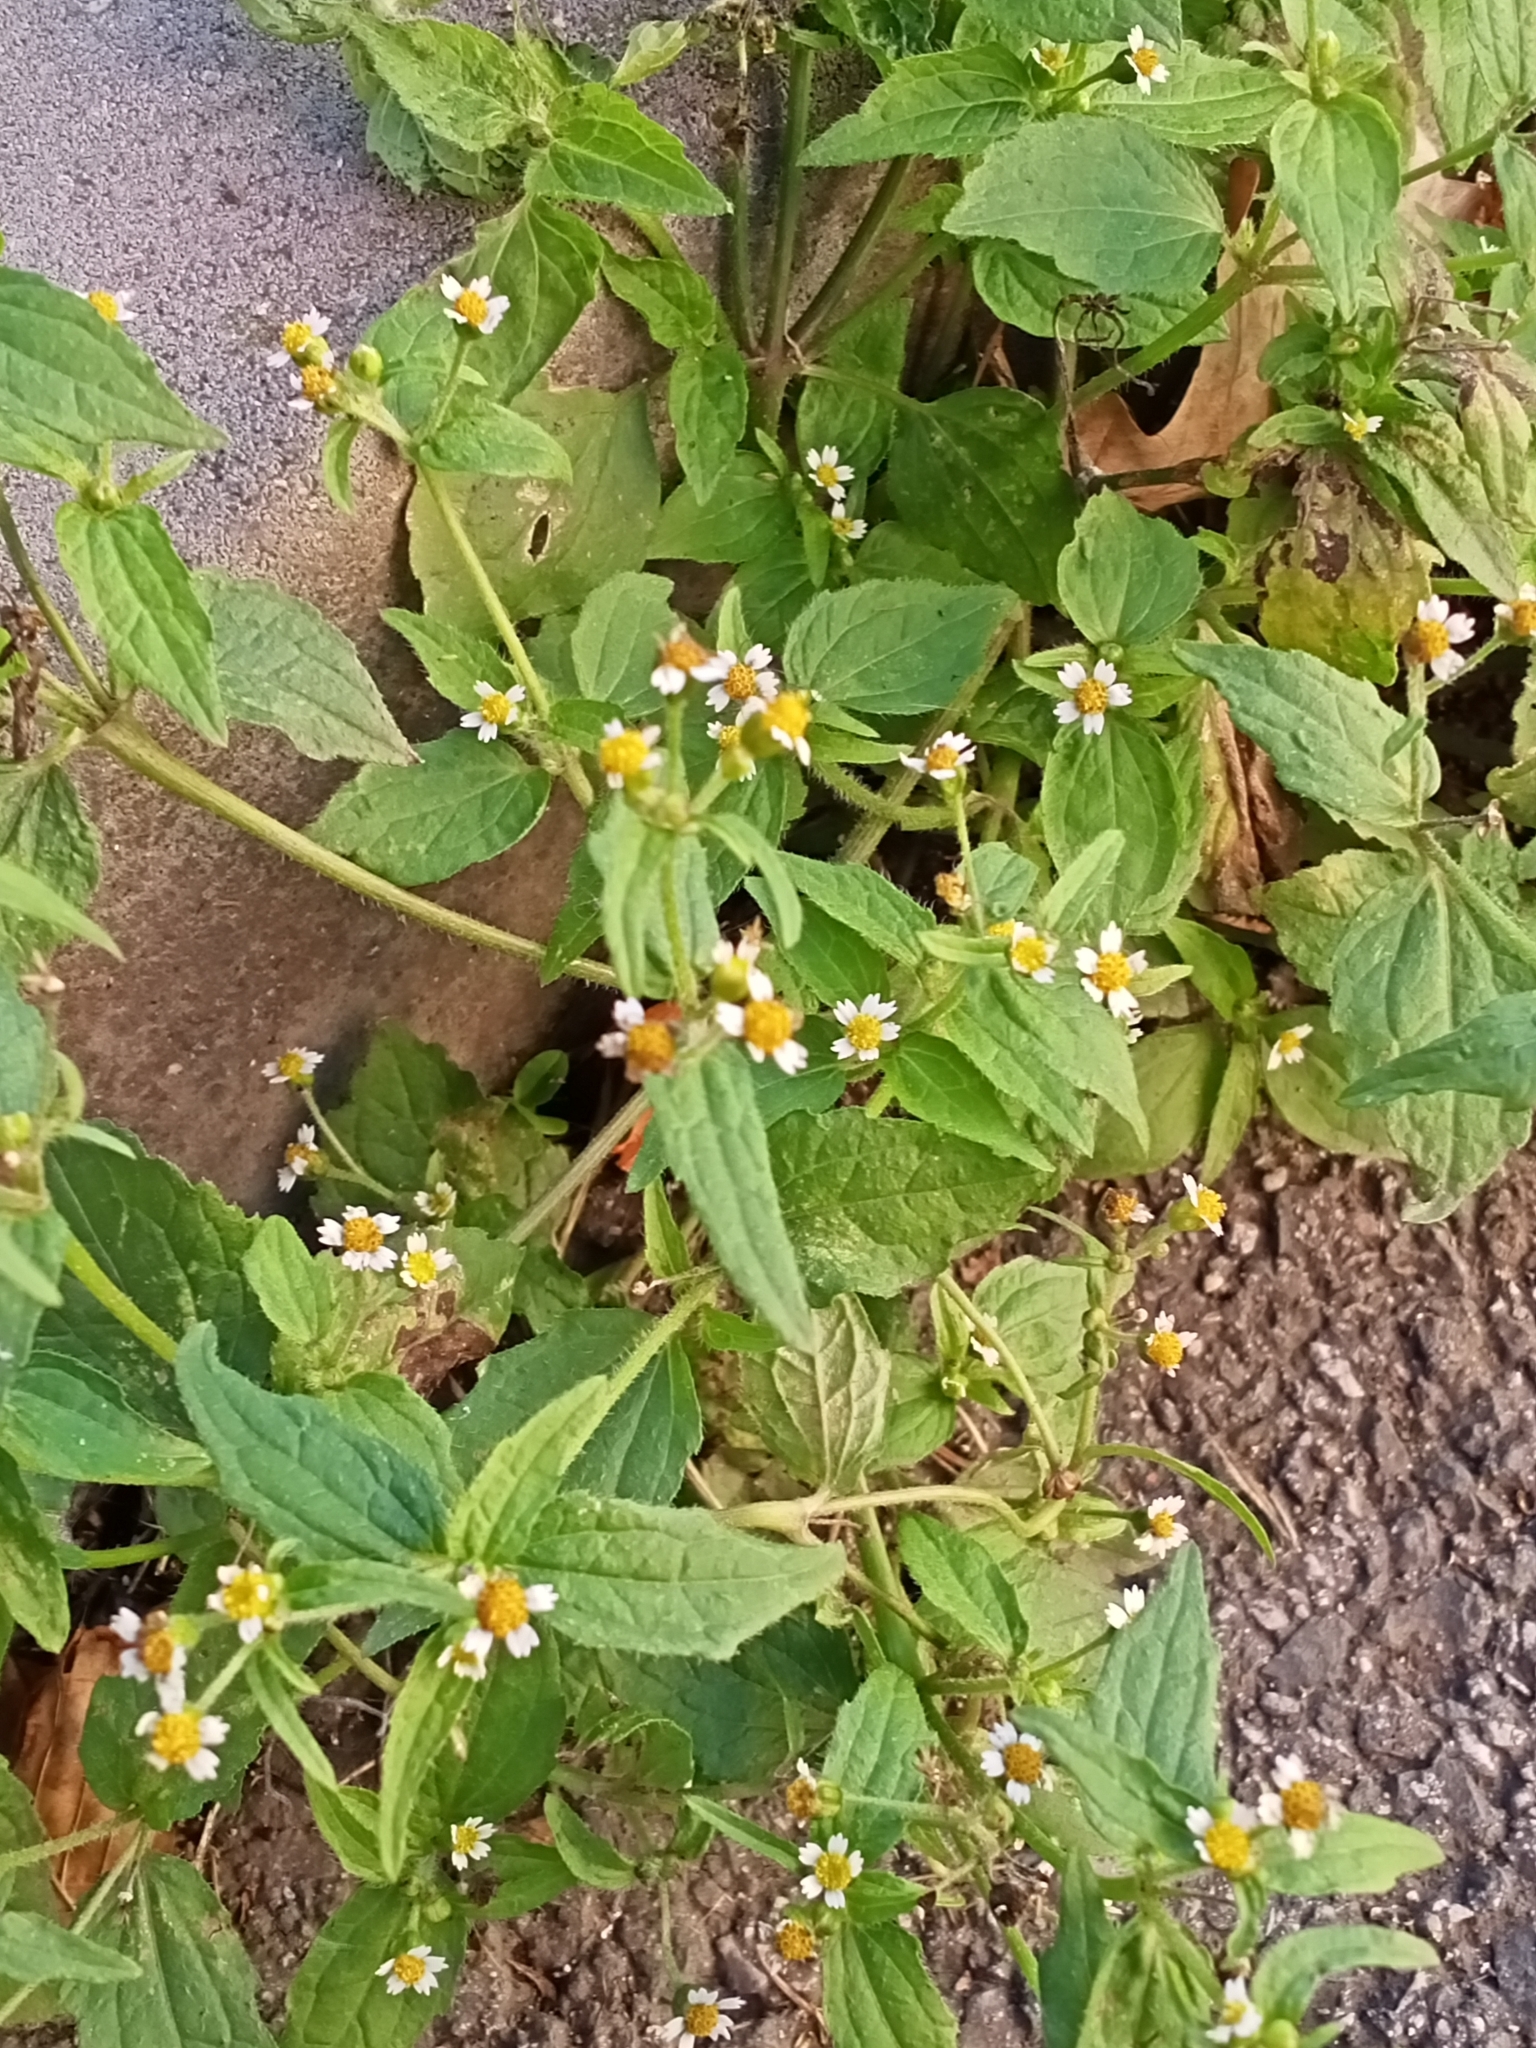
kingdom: Plantae
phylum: Tracheophyta
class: Magnoliopsida
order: Asterales
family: Asteraceae
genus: Galinsoga
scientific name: Galinsoga quadriradiata
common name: Shaggy soldier
